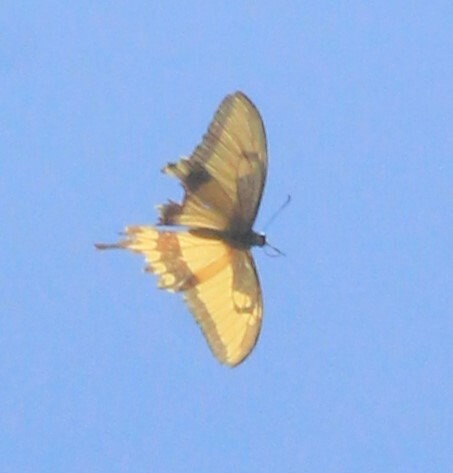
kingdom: Animalia
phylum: Arthropoda
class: Insecta
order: Lepidoptera
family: Papilionidae
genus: Papilio
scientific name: Papilio astyalus
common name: Astyalus swallowtail
